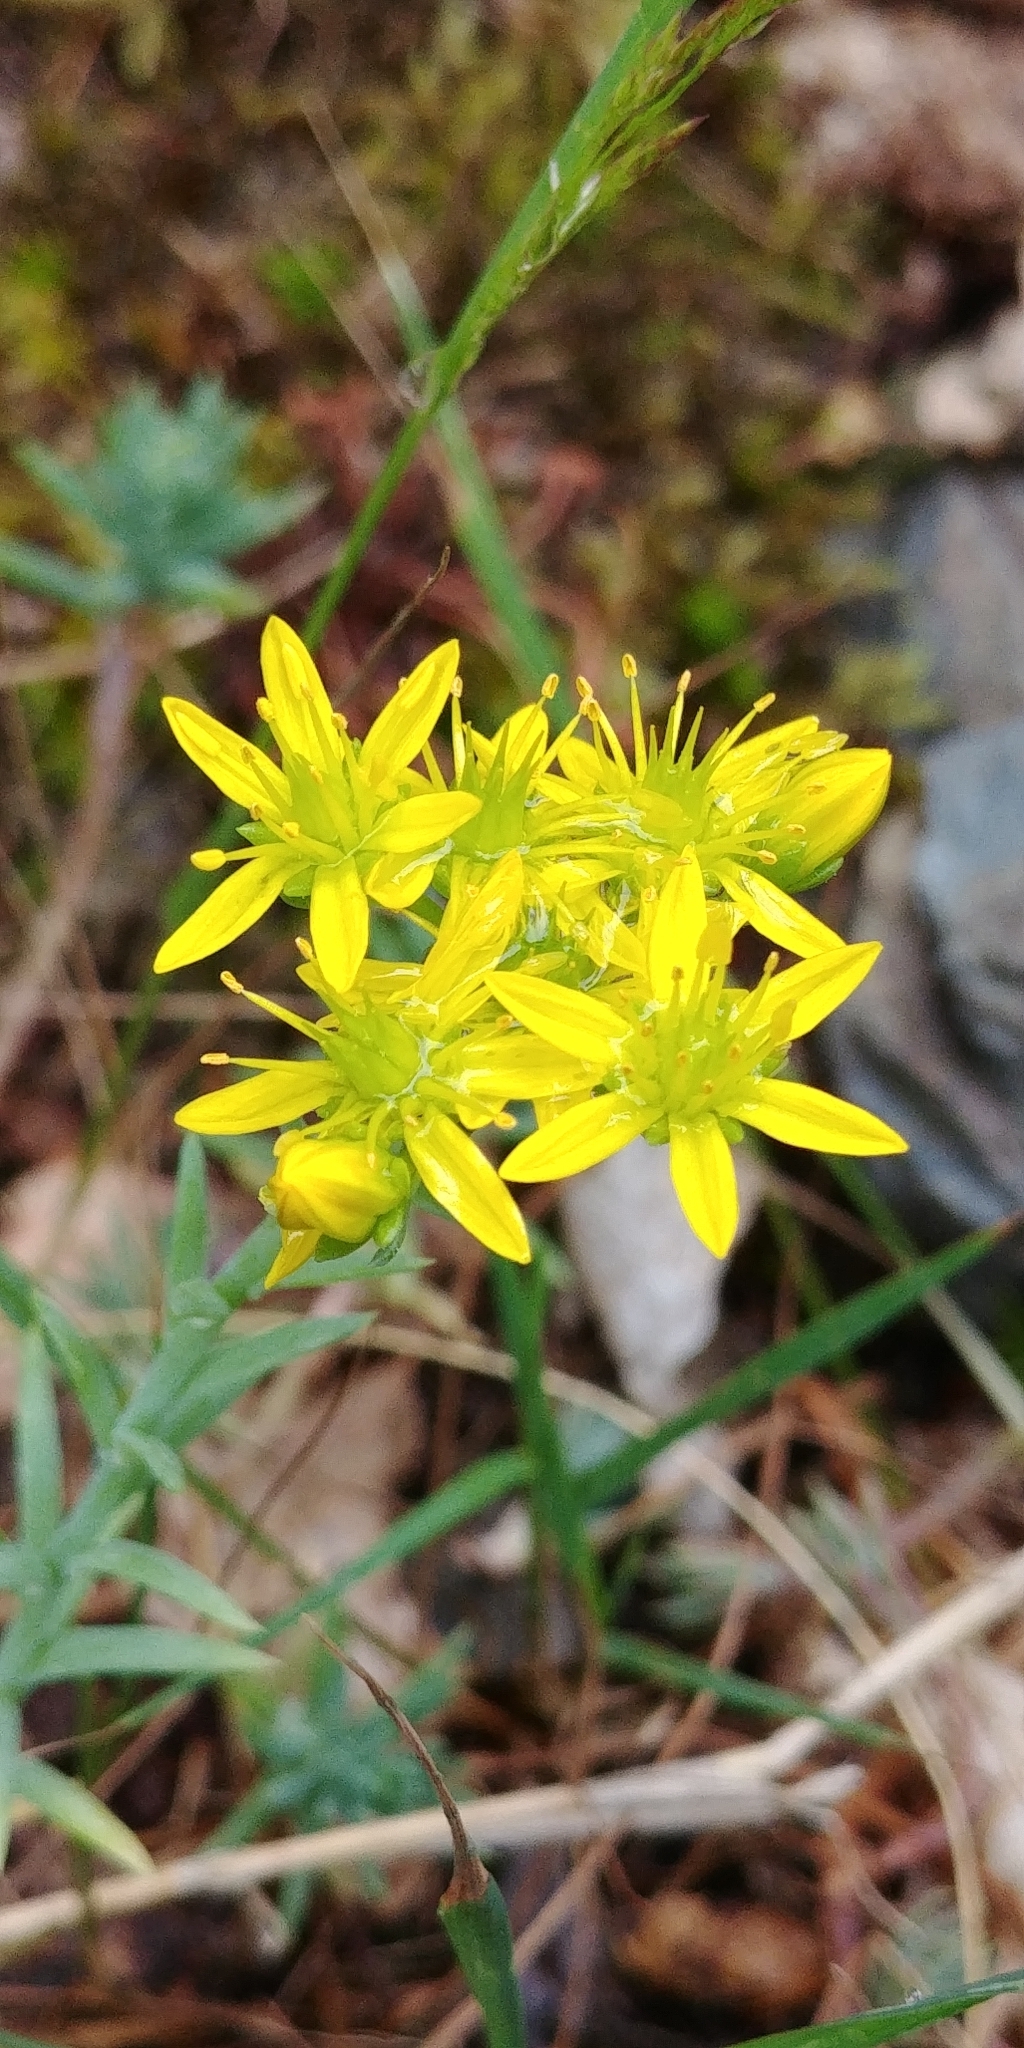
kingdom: Plantae
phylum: Tracheophyta
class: Magnoliopsida
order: Saxifragales
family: Crassulaceae
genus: Petrosedum
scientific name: Petrosedum rupestre
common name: Jenny's stonecrop
